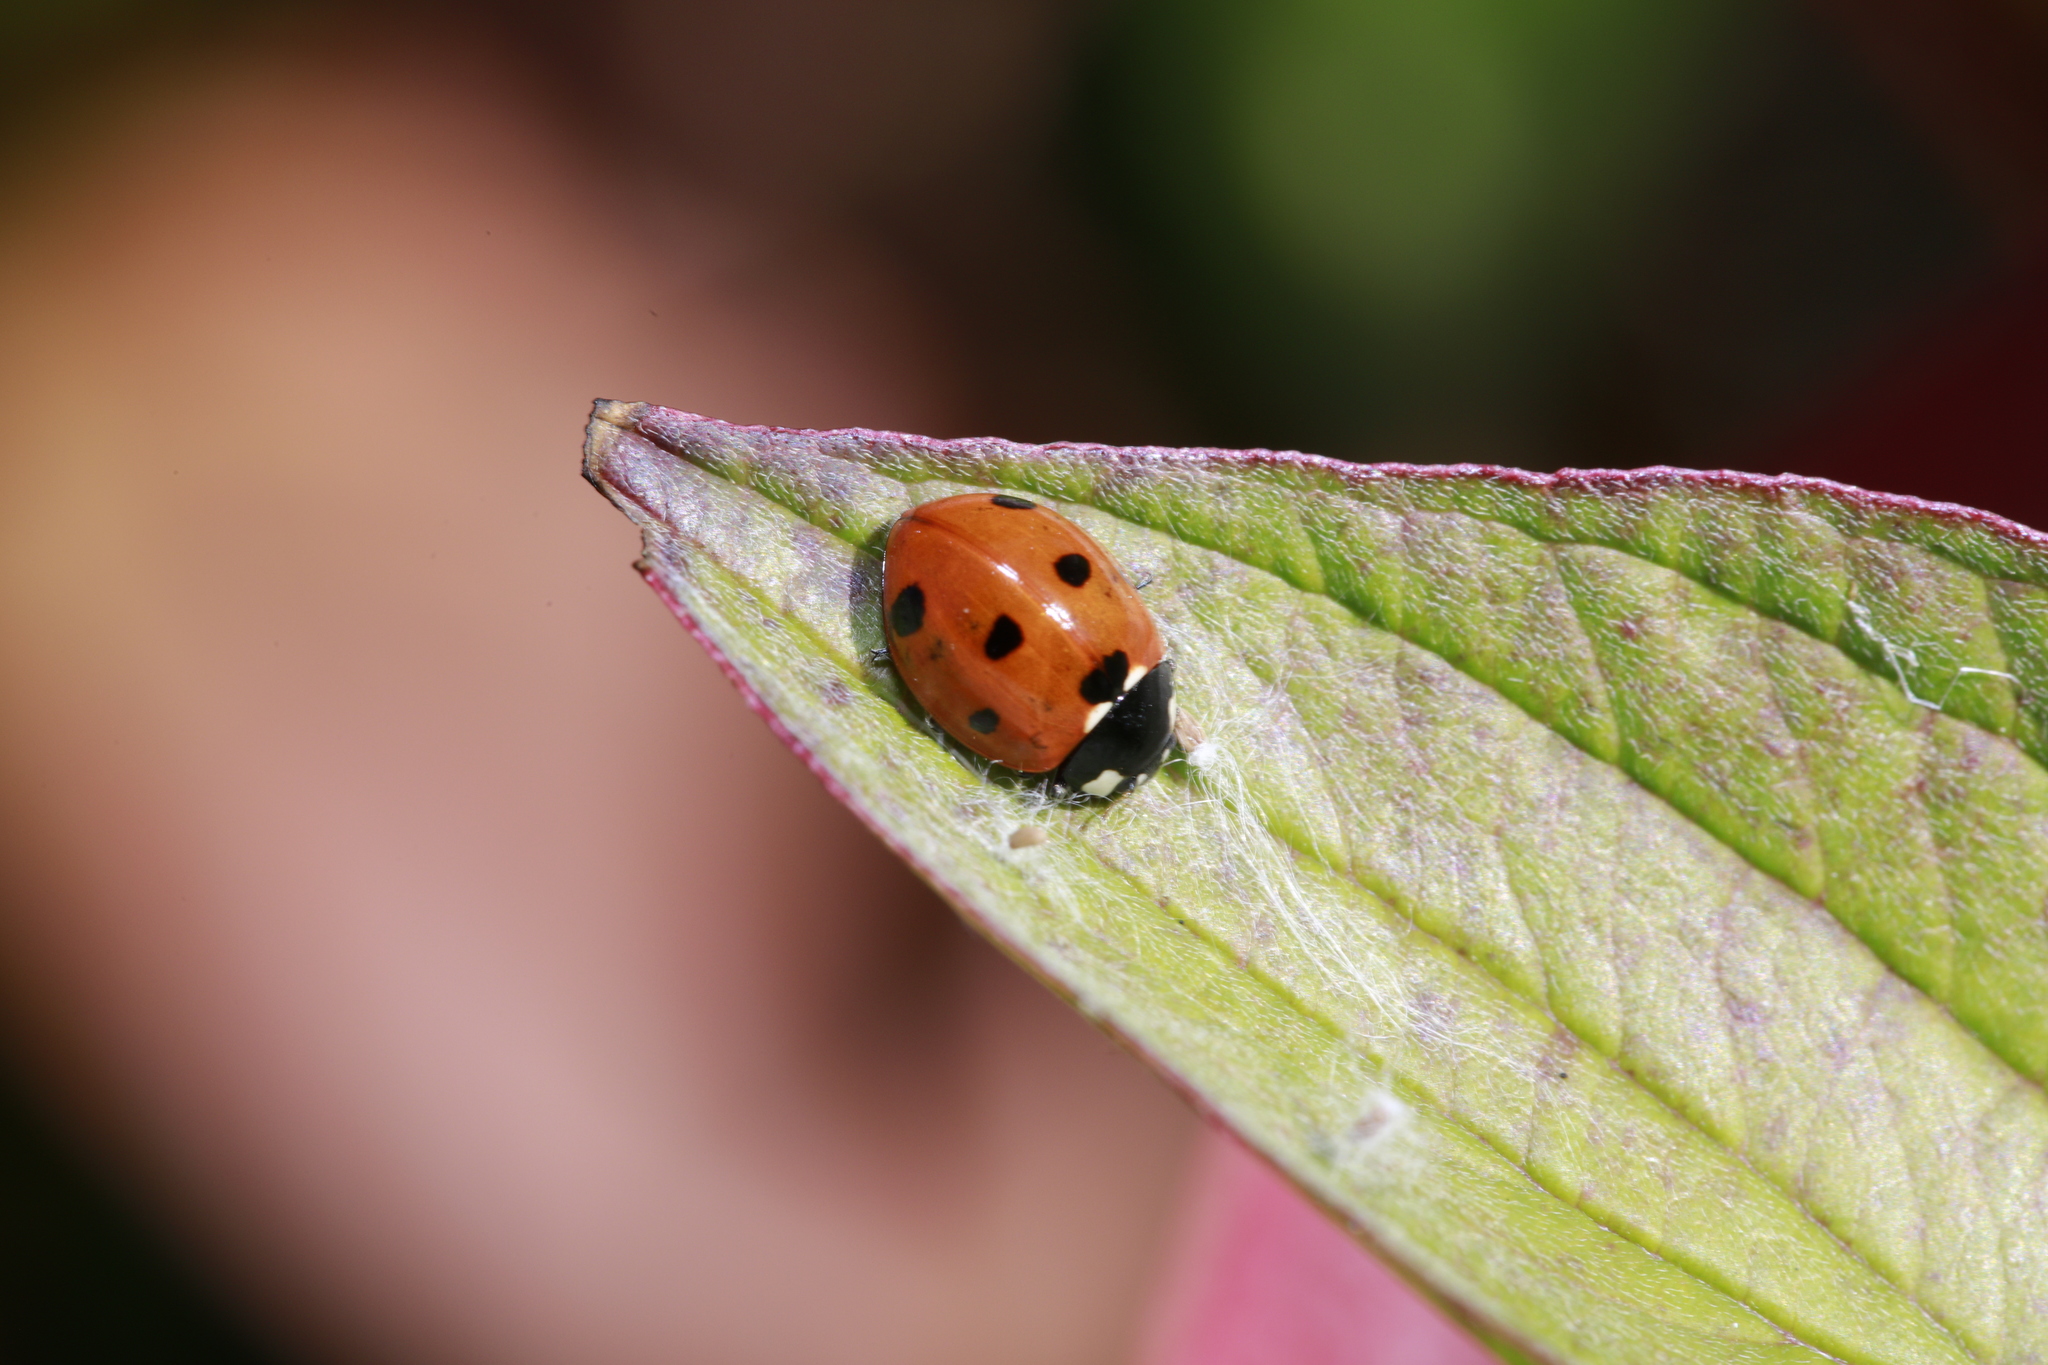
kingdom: Animalia
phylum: Arthropoda
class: Insecta
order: Coleoptera
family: Coccinellidae
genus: Coccinella
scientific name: Coccinella septempunctata
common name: Sevenspotted lady beetle
